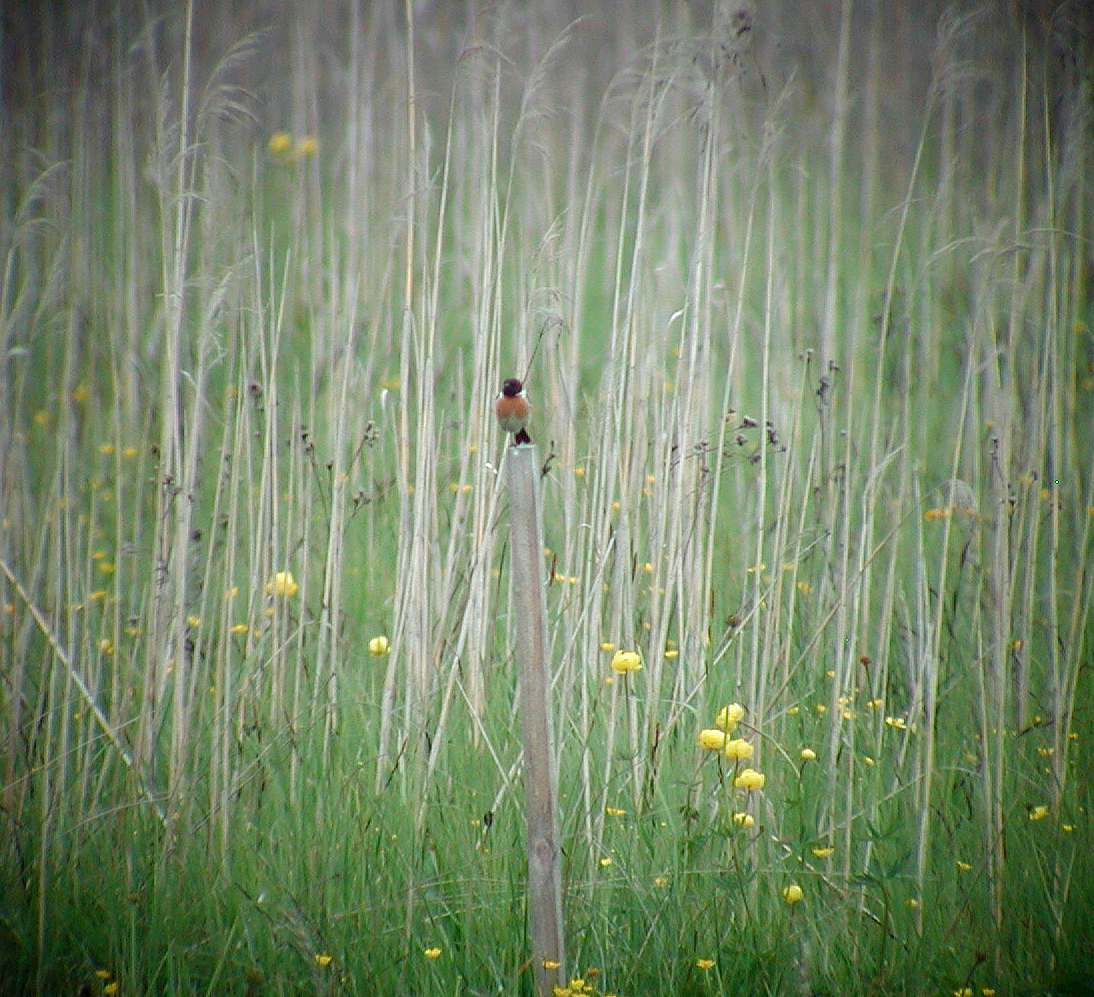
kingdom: Animalia
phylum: Chordata
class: Aves
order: Passeriformes
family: Muscicapidae
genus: Saxicola
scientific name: Saxicola rubicola
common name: European stonechat
